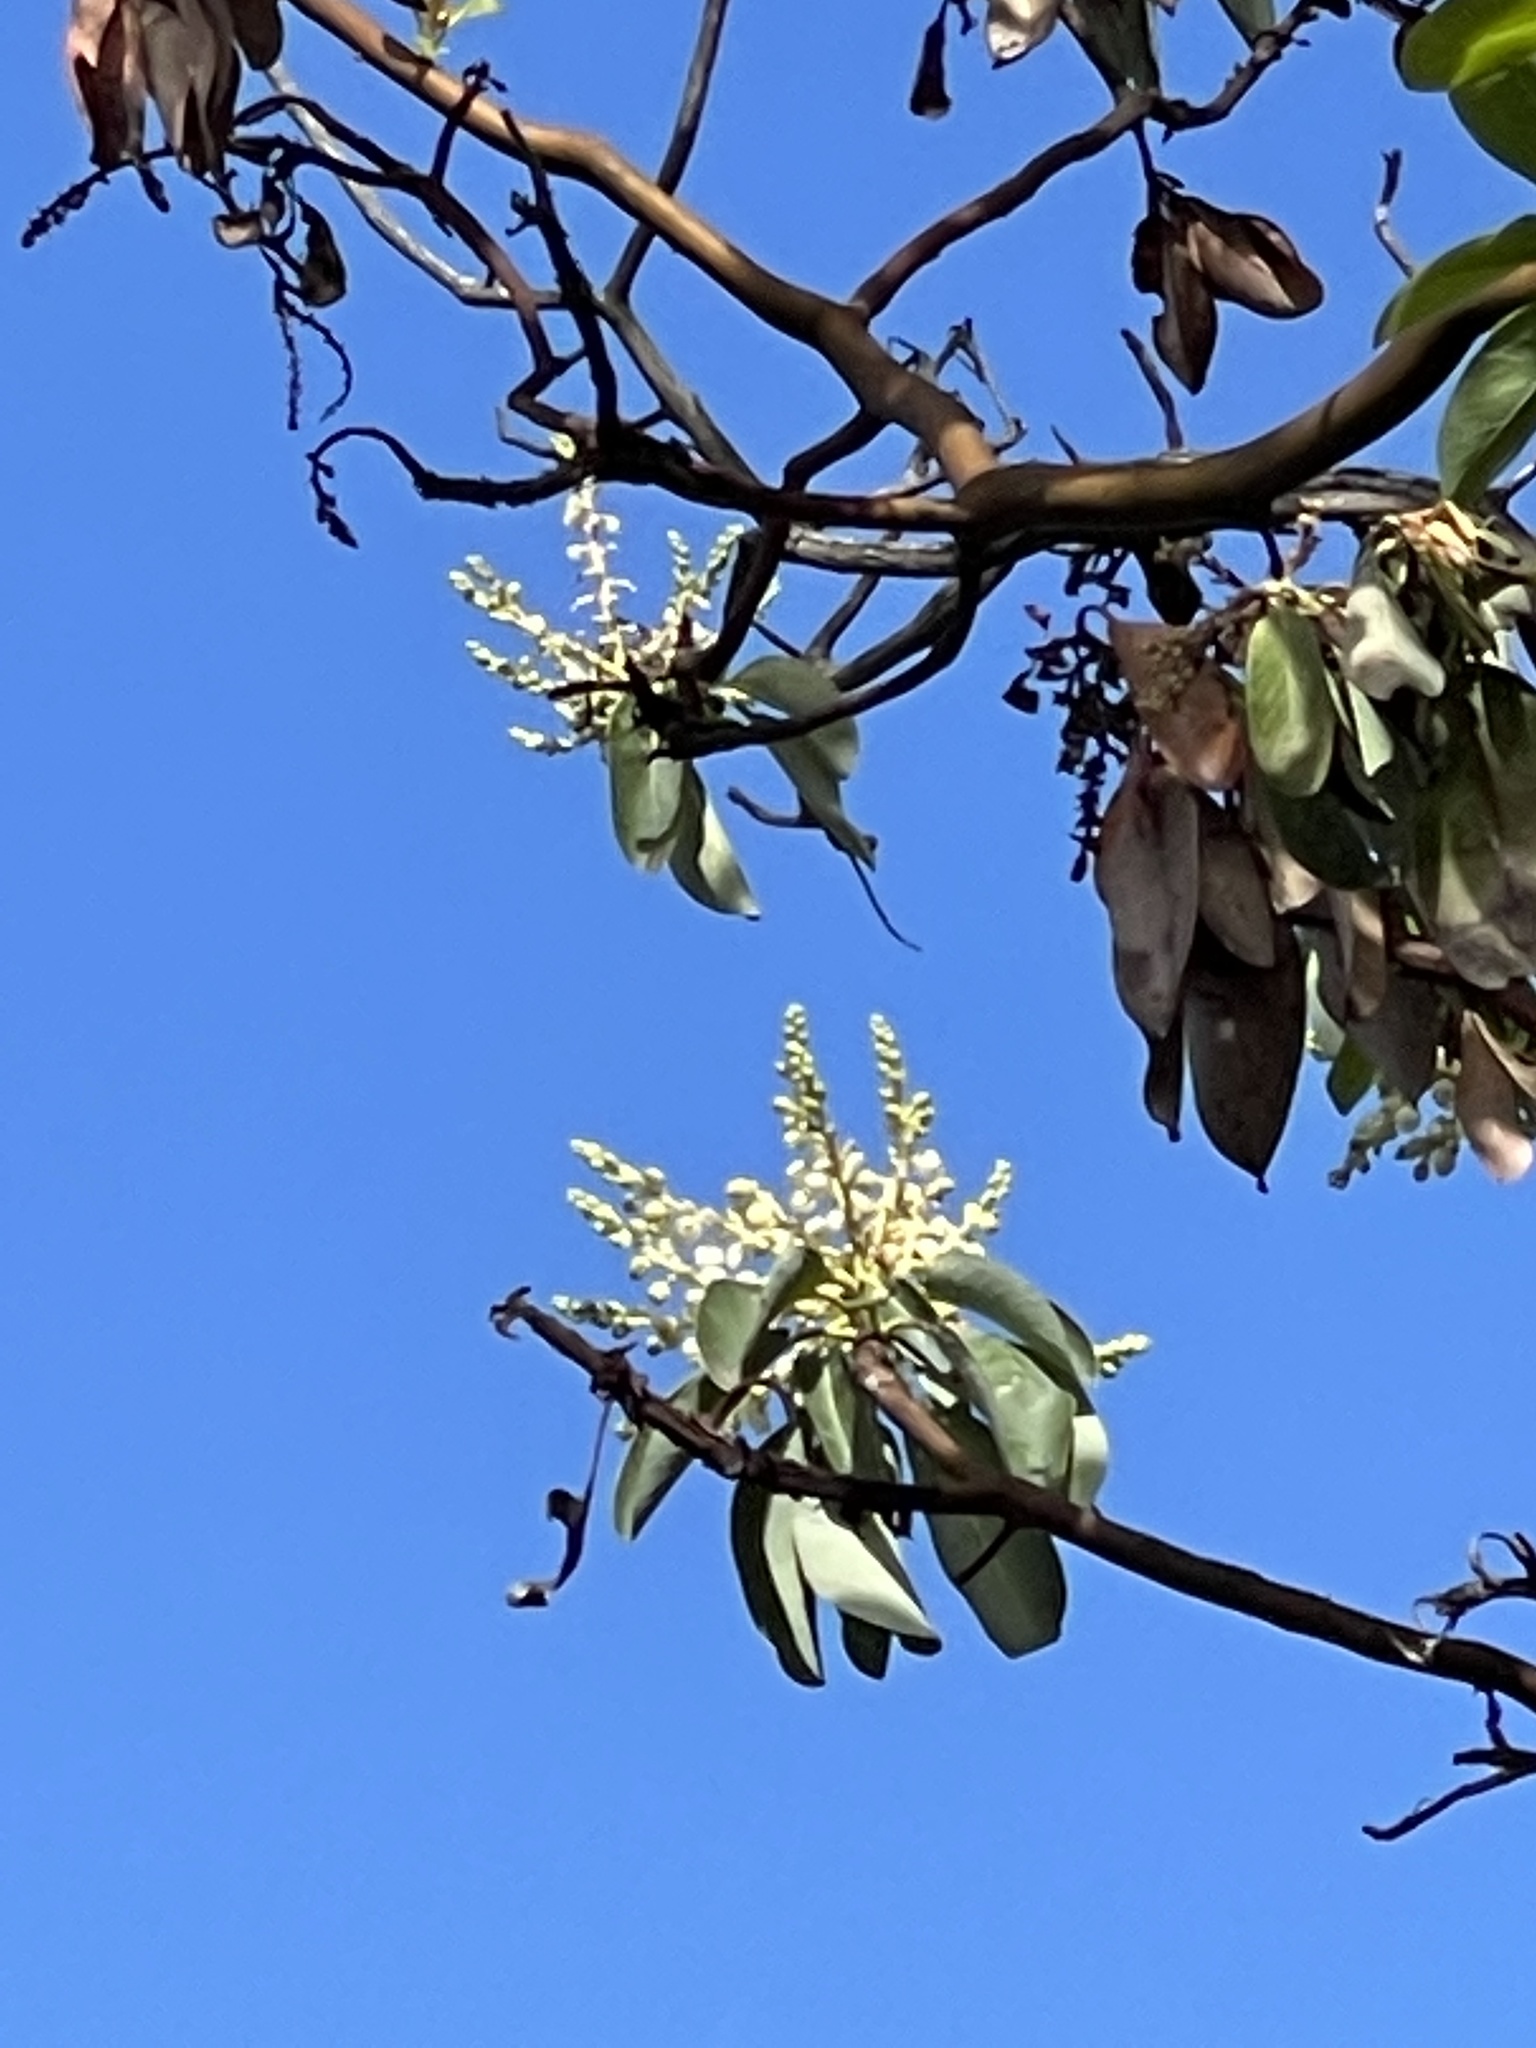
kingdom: Plantae
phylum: Tracheophyta
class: Magnoliopsida
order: Ericales
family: Ericaceae
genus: Arbutus
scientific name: Arbutus menziesii
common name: Pacific madrone
